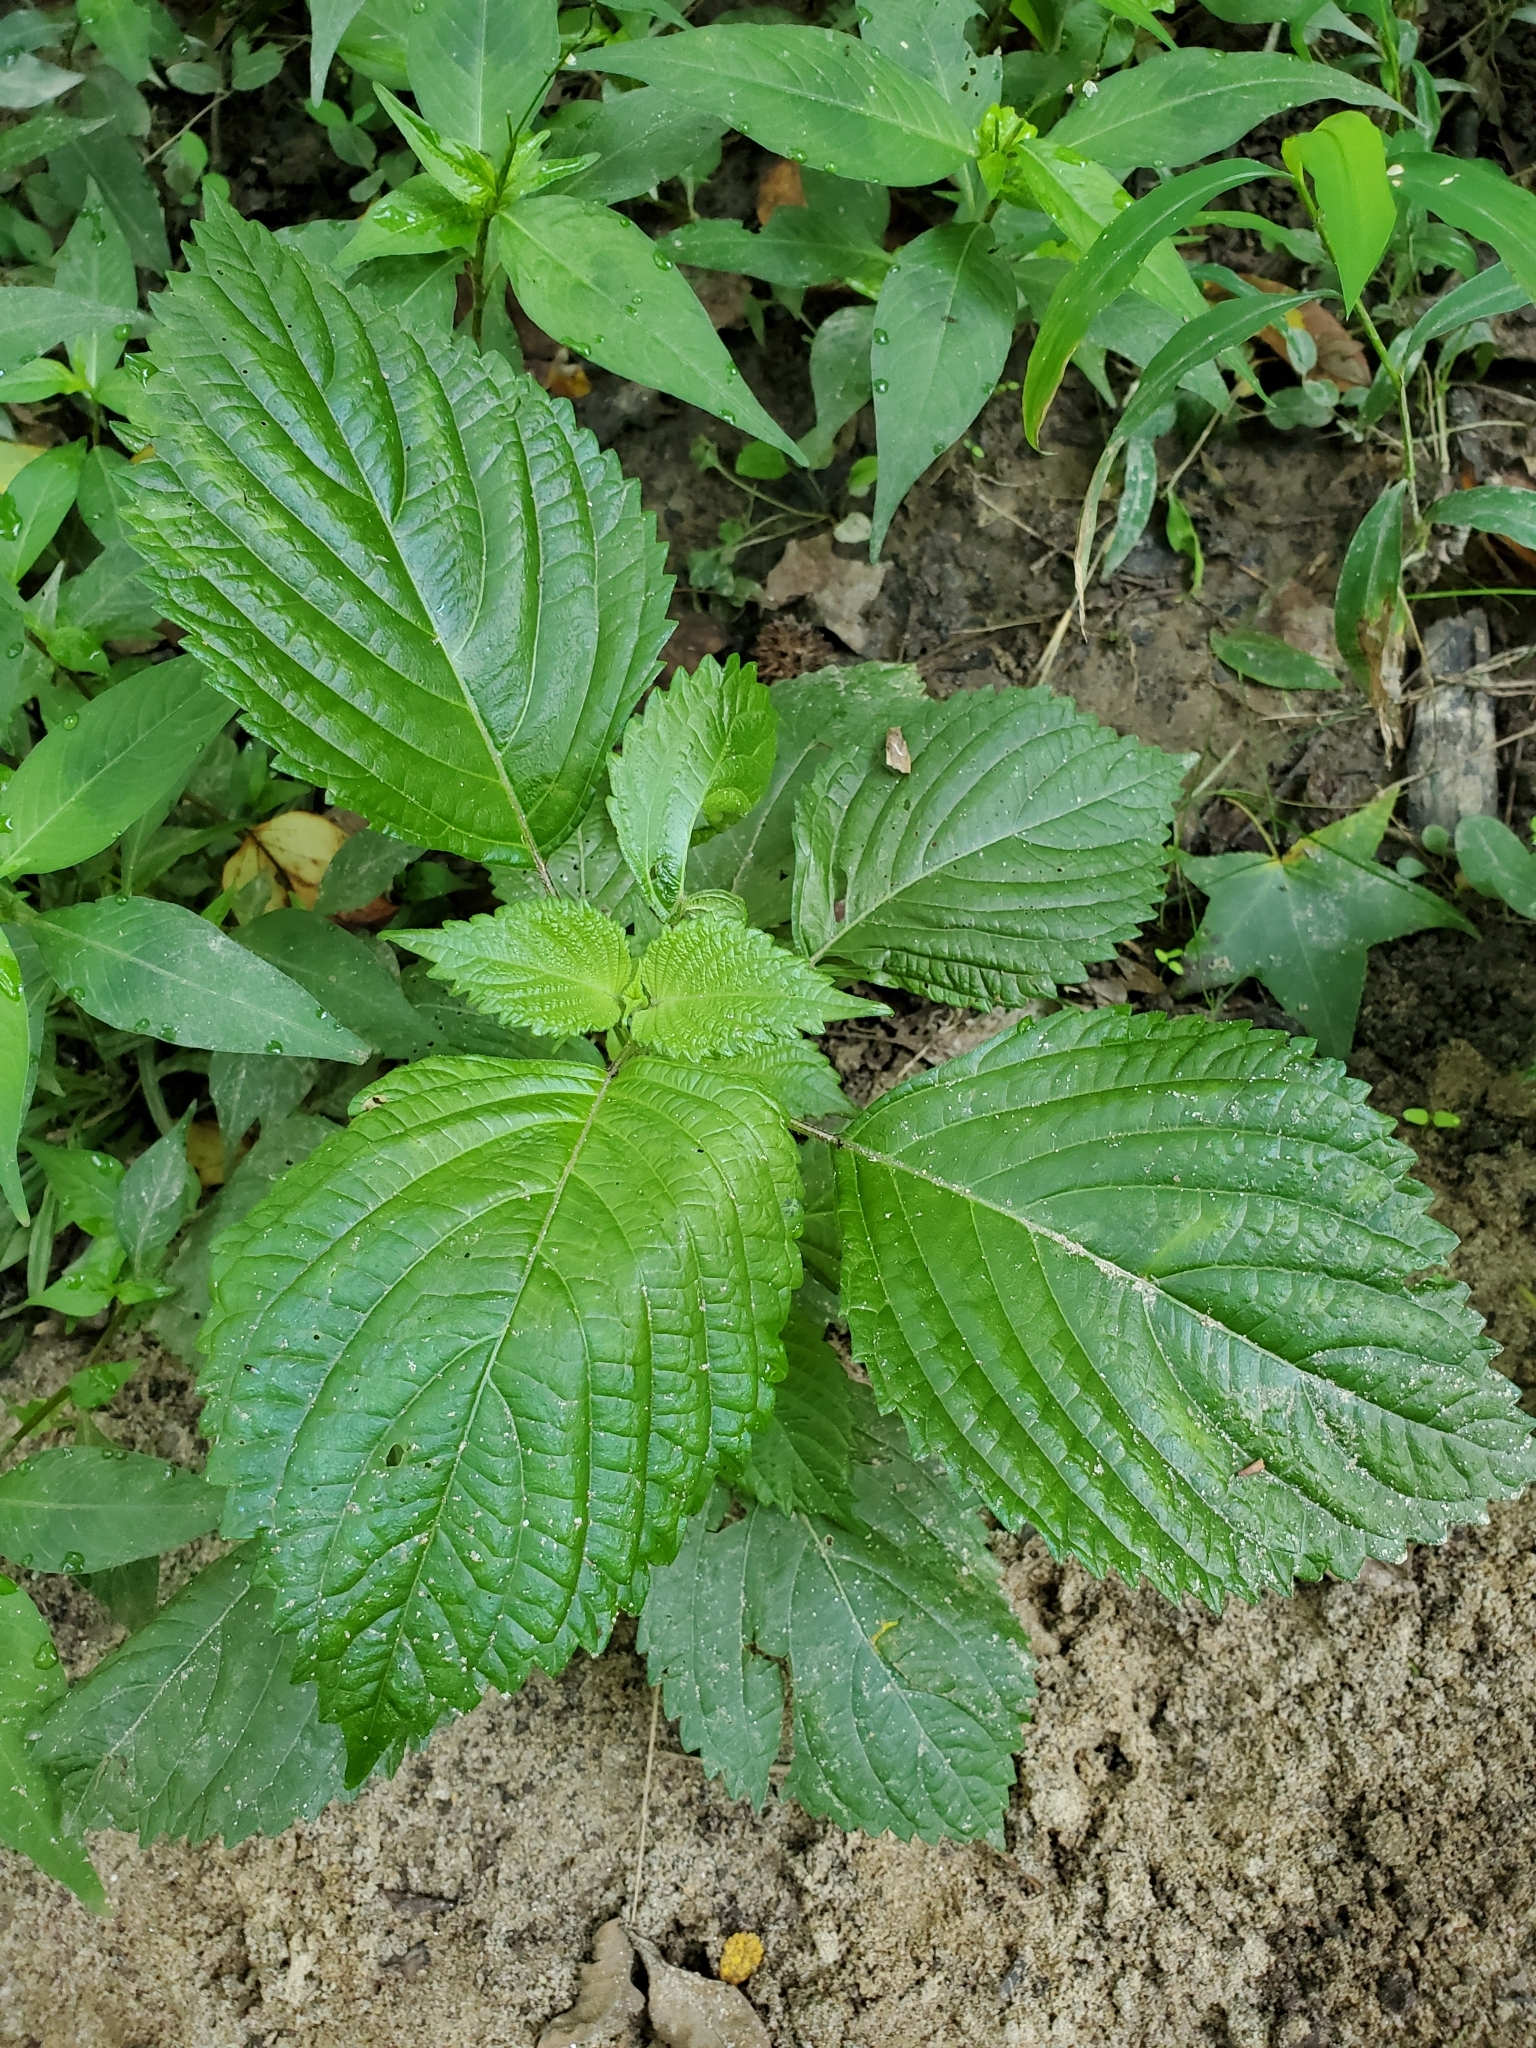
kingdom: Plantae
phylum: Tracheophyta
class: Magnoliopsida
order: Lamiales
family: Lamiaceae
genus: Perilla
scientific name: Perilla frutescens
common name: Perilla
